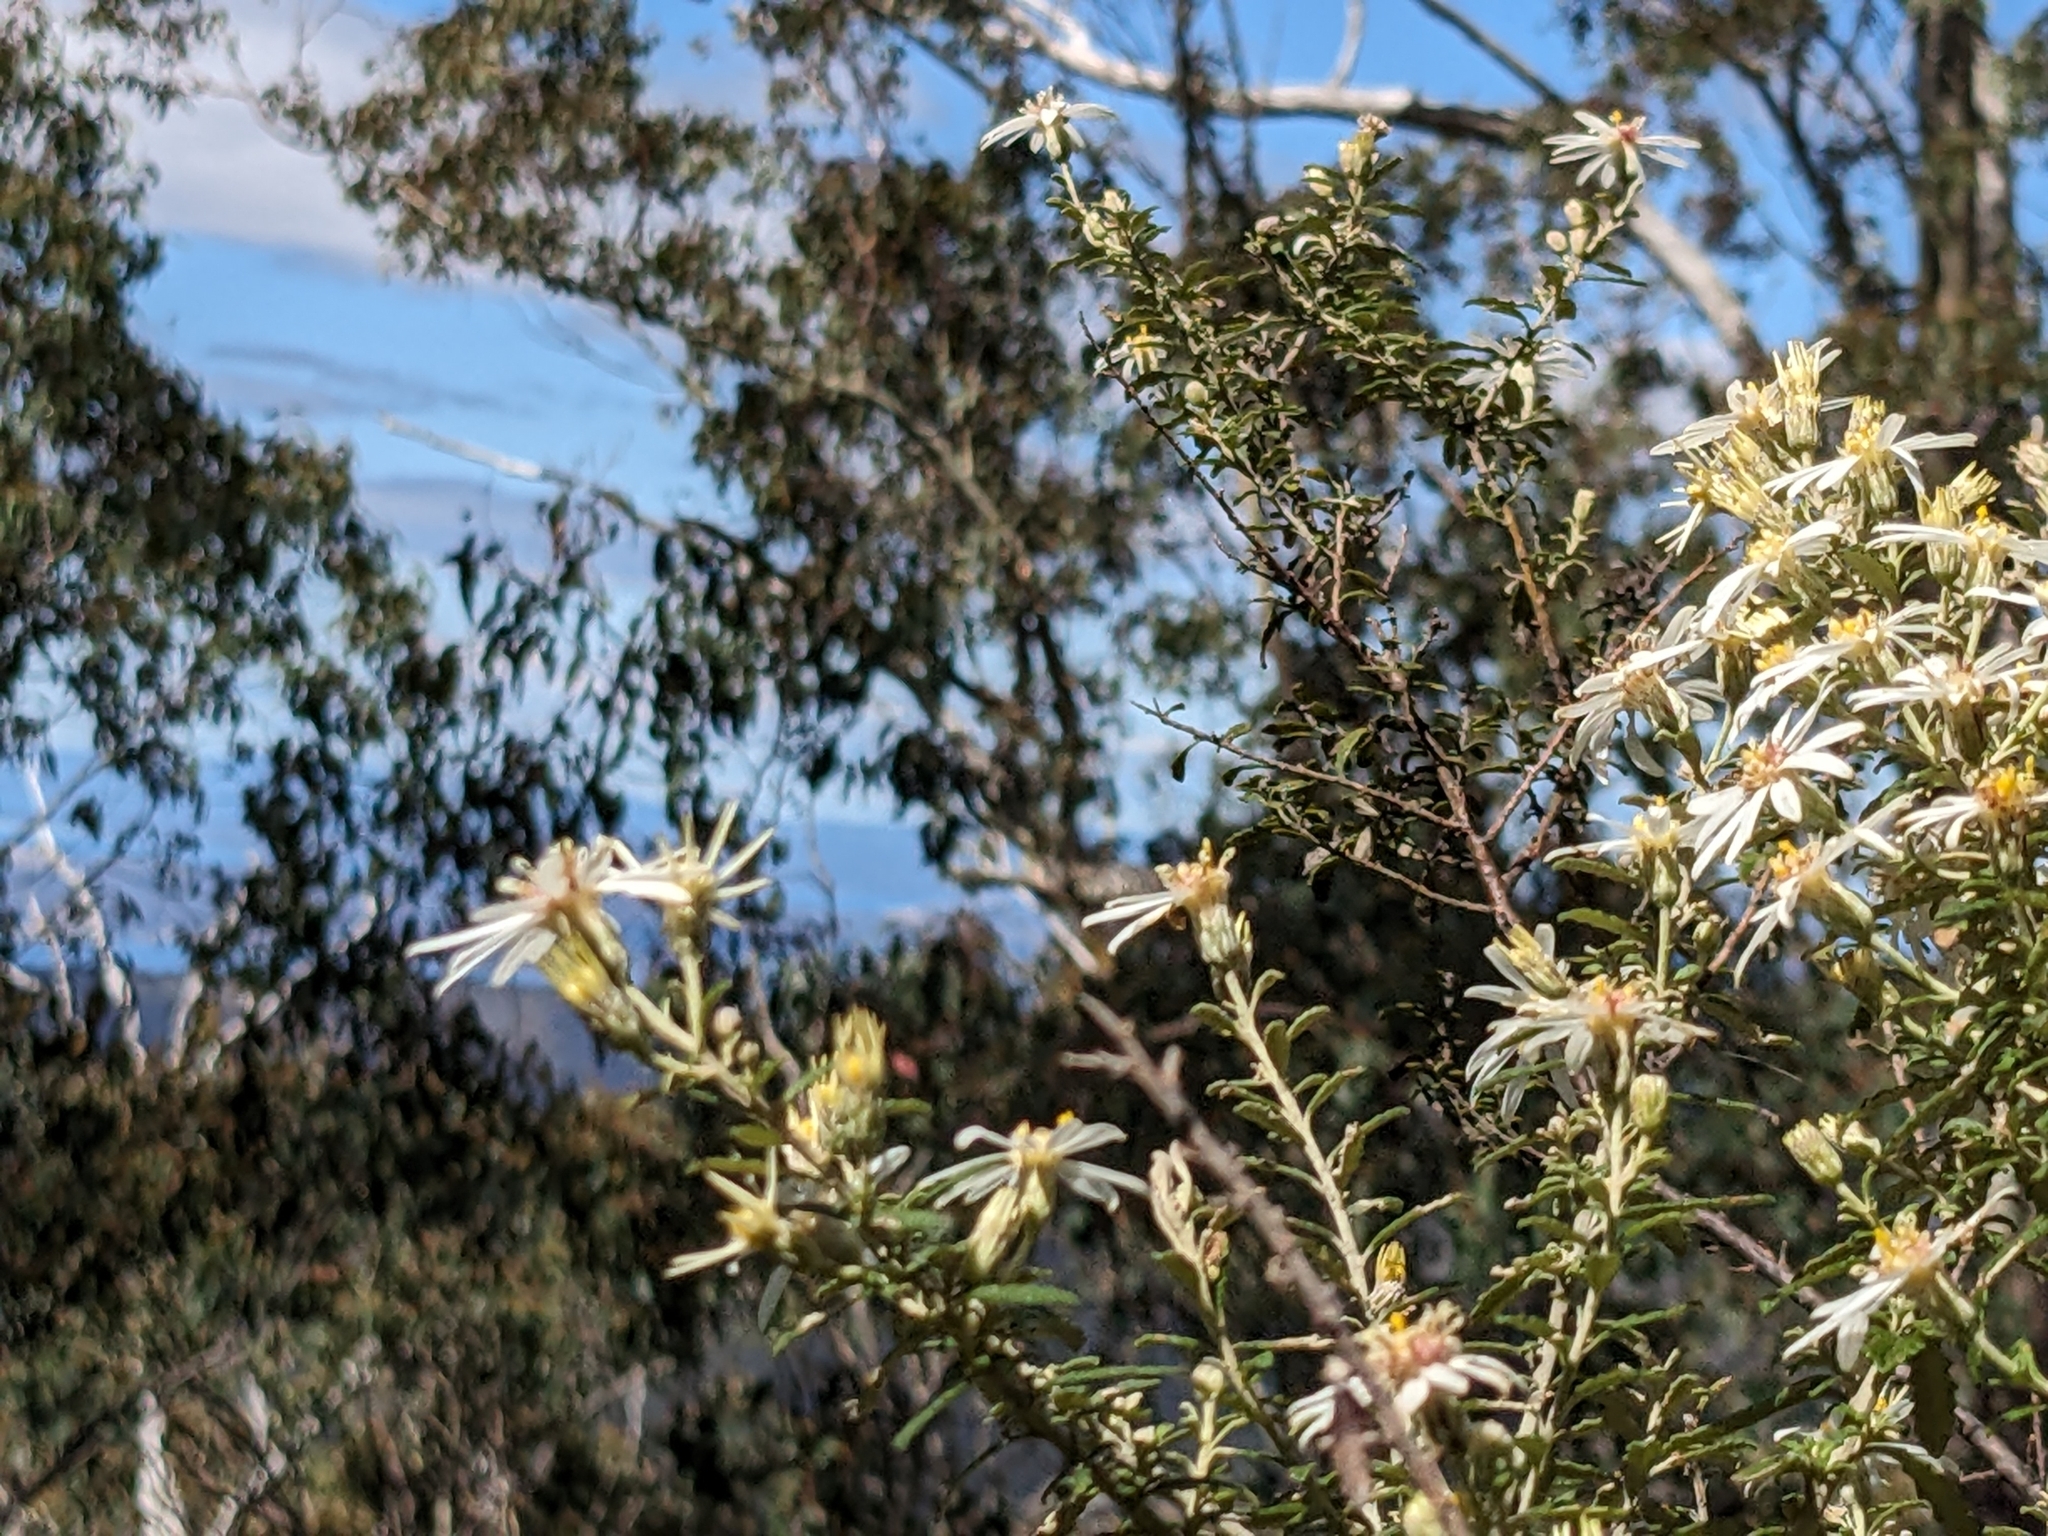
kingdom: Plantae
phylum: Tracheophyta
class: Magnoliopsida
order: Asterales
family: Asteraceae
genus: Olearia
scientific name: Olearia phlogopappa
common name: Alpine daisybush
